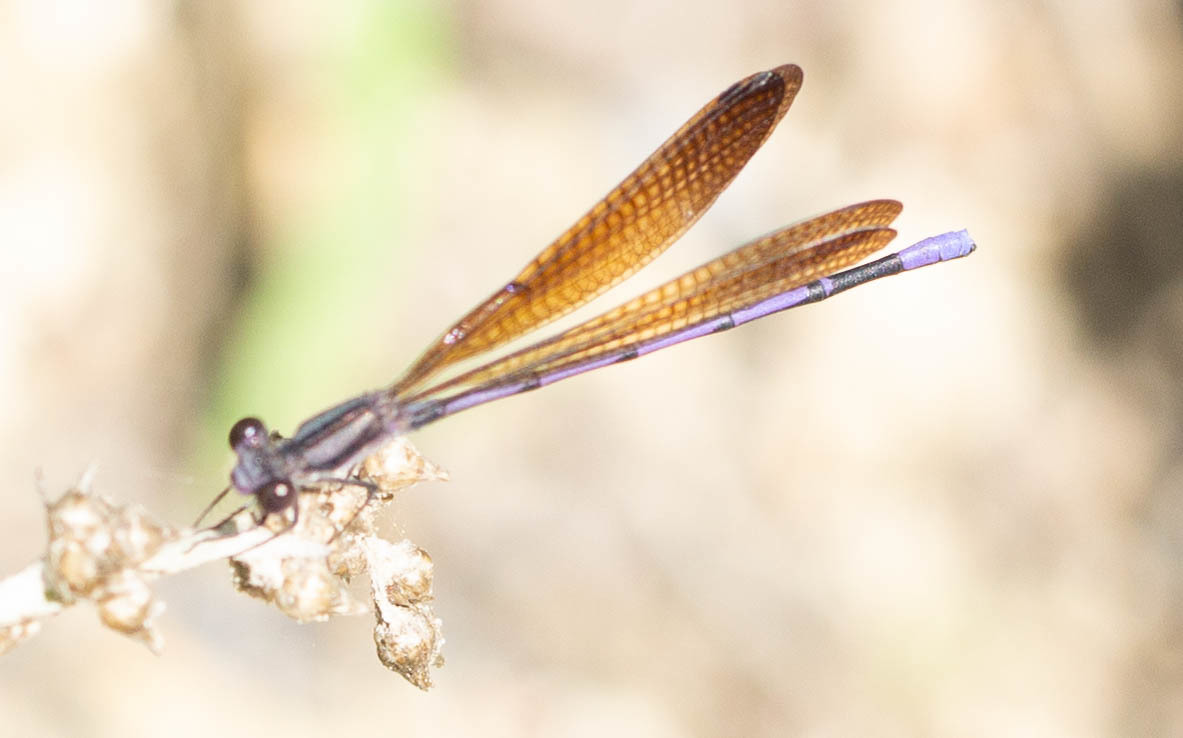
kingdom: Animalia
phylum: Arthropoda
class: Insecta
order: Odonata
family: Coenagrionidae
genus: Argia
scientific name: Argia fumipennis
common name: Variable dancer
